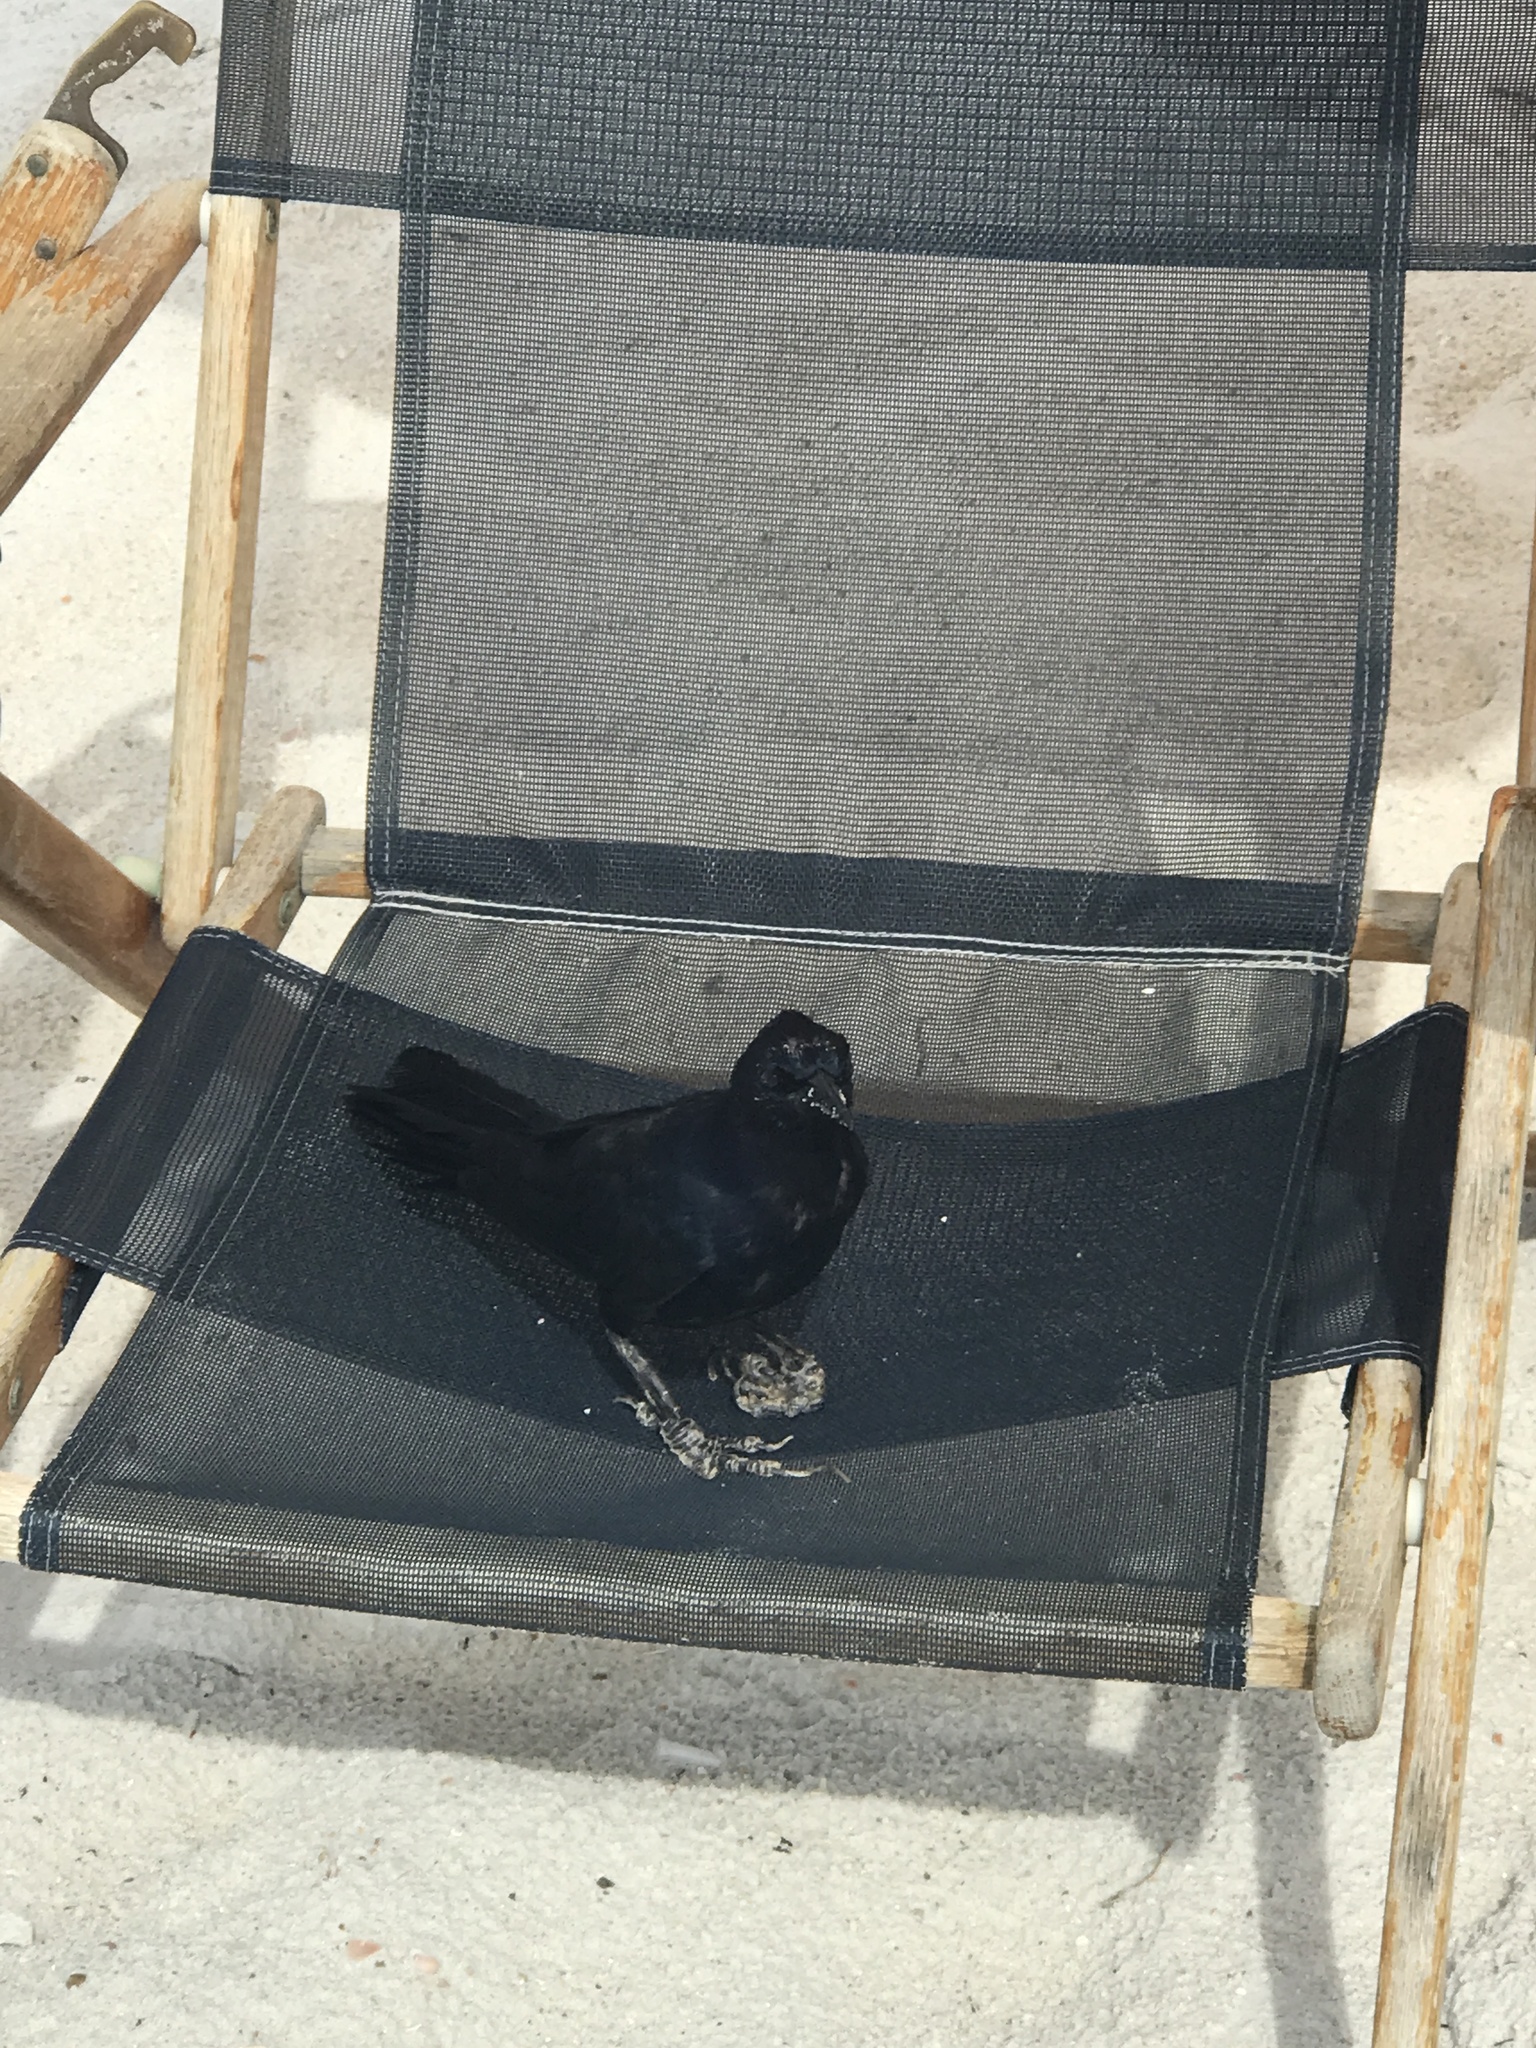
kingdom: Animalia
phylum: Chordata
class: Aves
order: Passeriformes
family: Icteridae
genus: Quiscalus
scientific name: Quiscalus major
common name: Boat-tailed grackle
